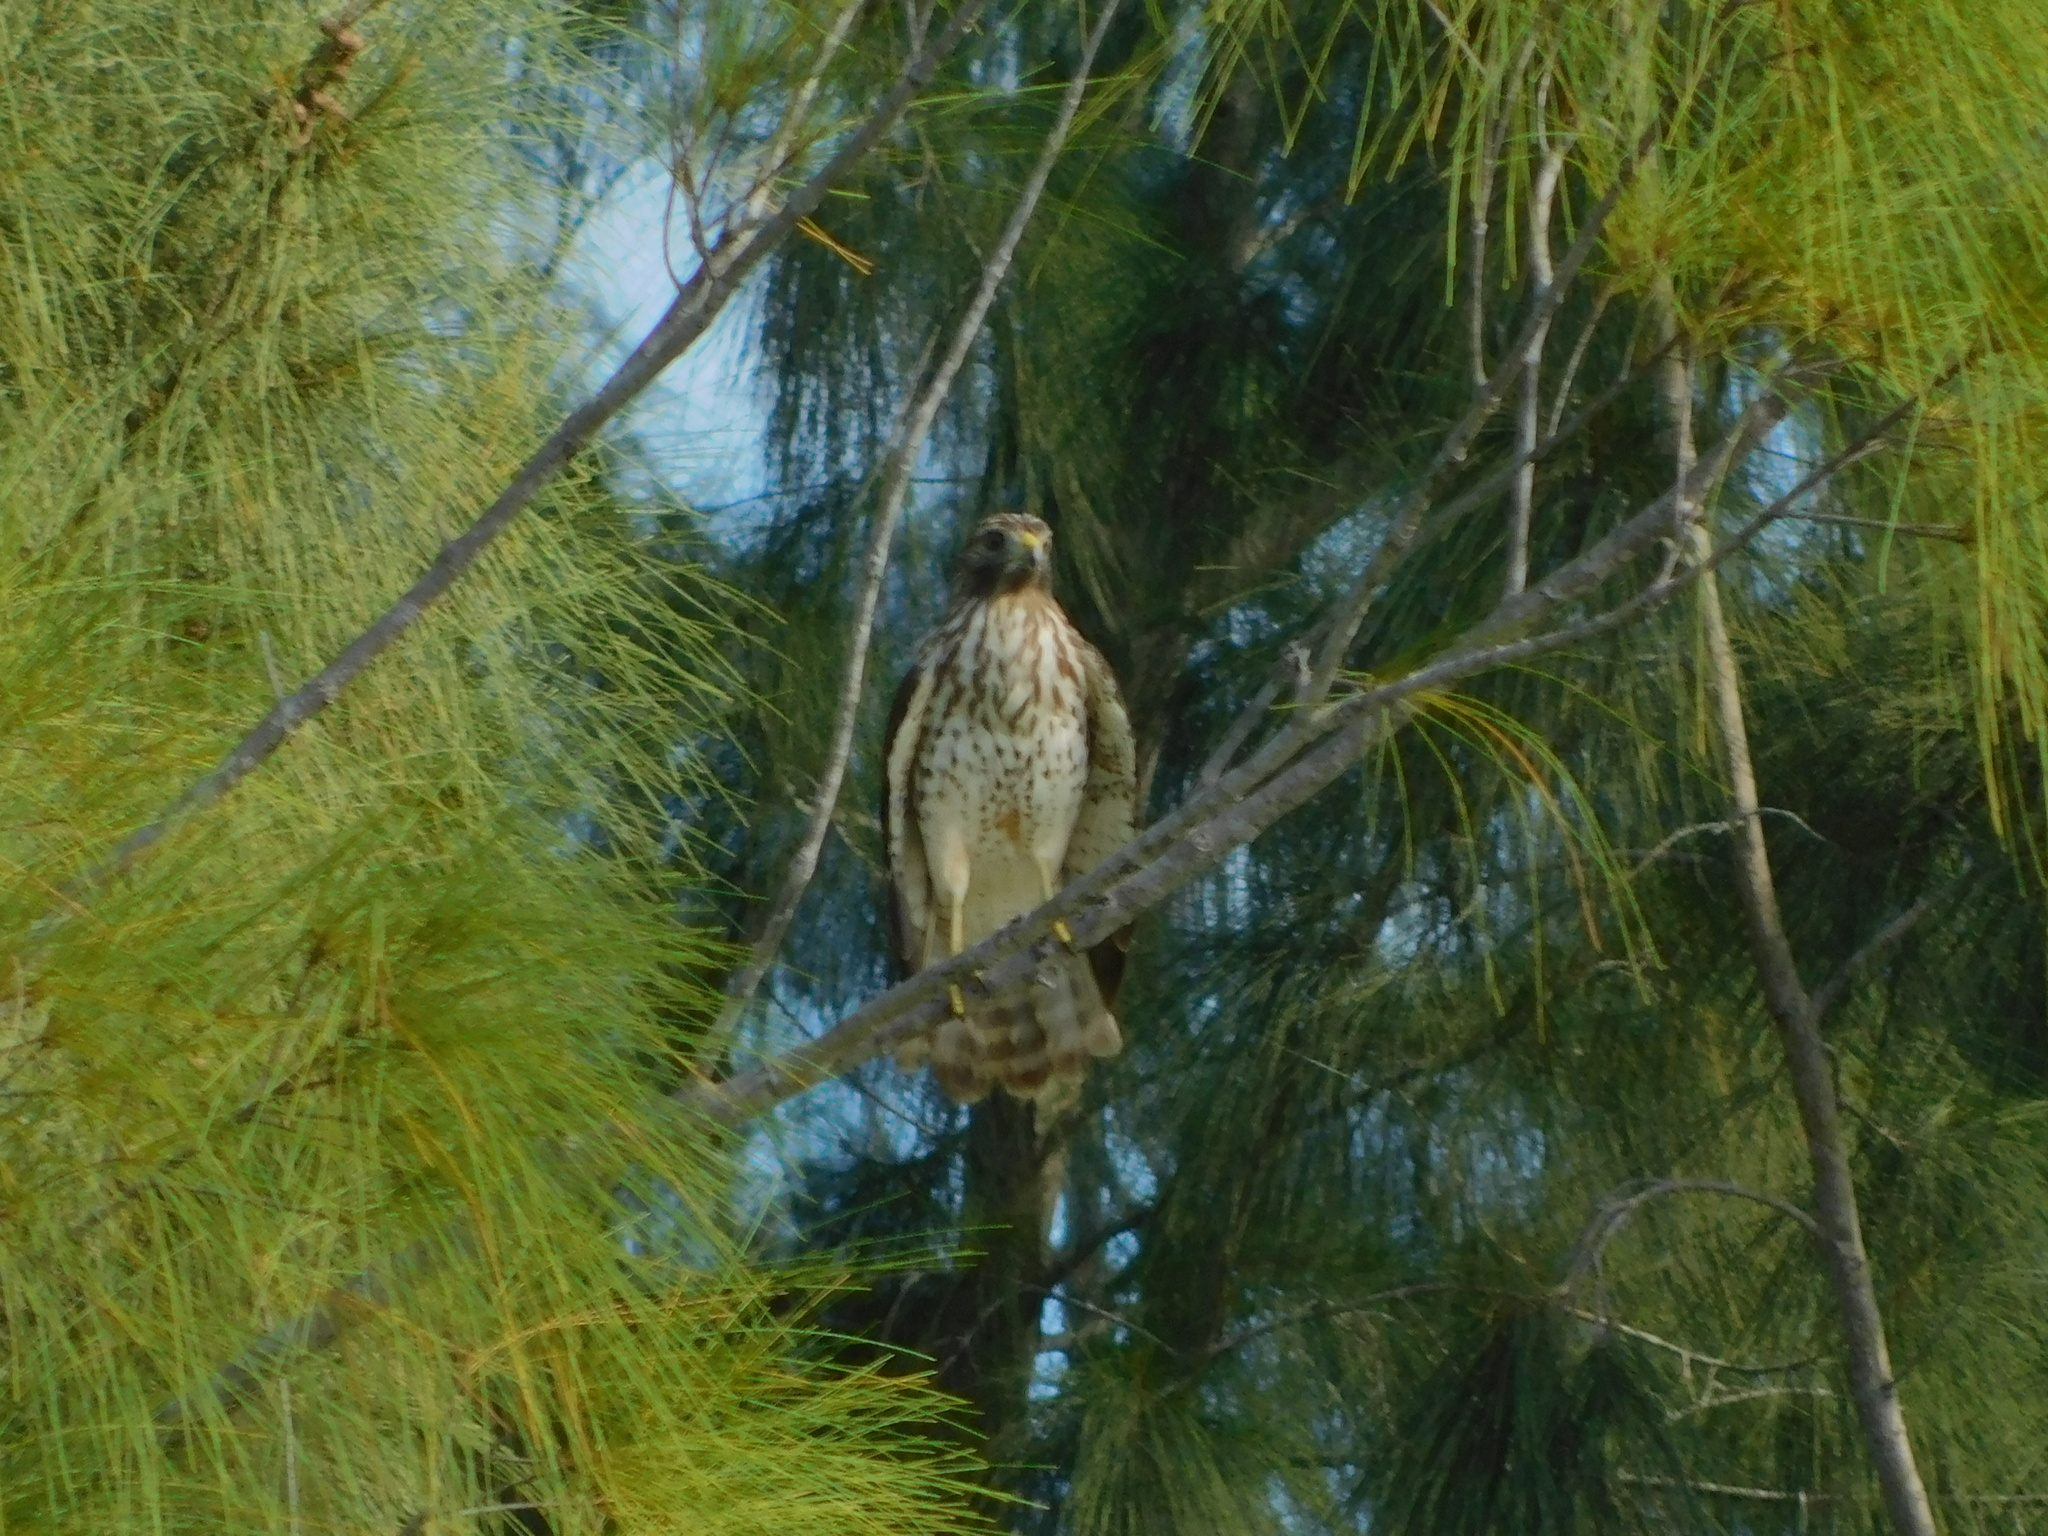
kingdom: Animalia
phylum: Chordata
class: Aves
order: Accipitriformes
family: Accipitridae
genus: Buteo
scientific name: Buteo lineatus
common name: Red-shouldered hawk
